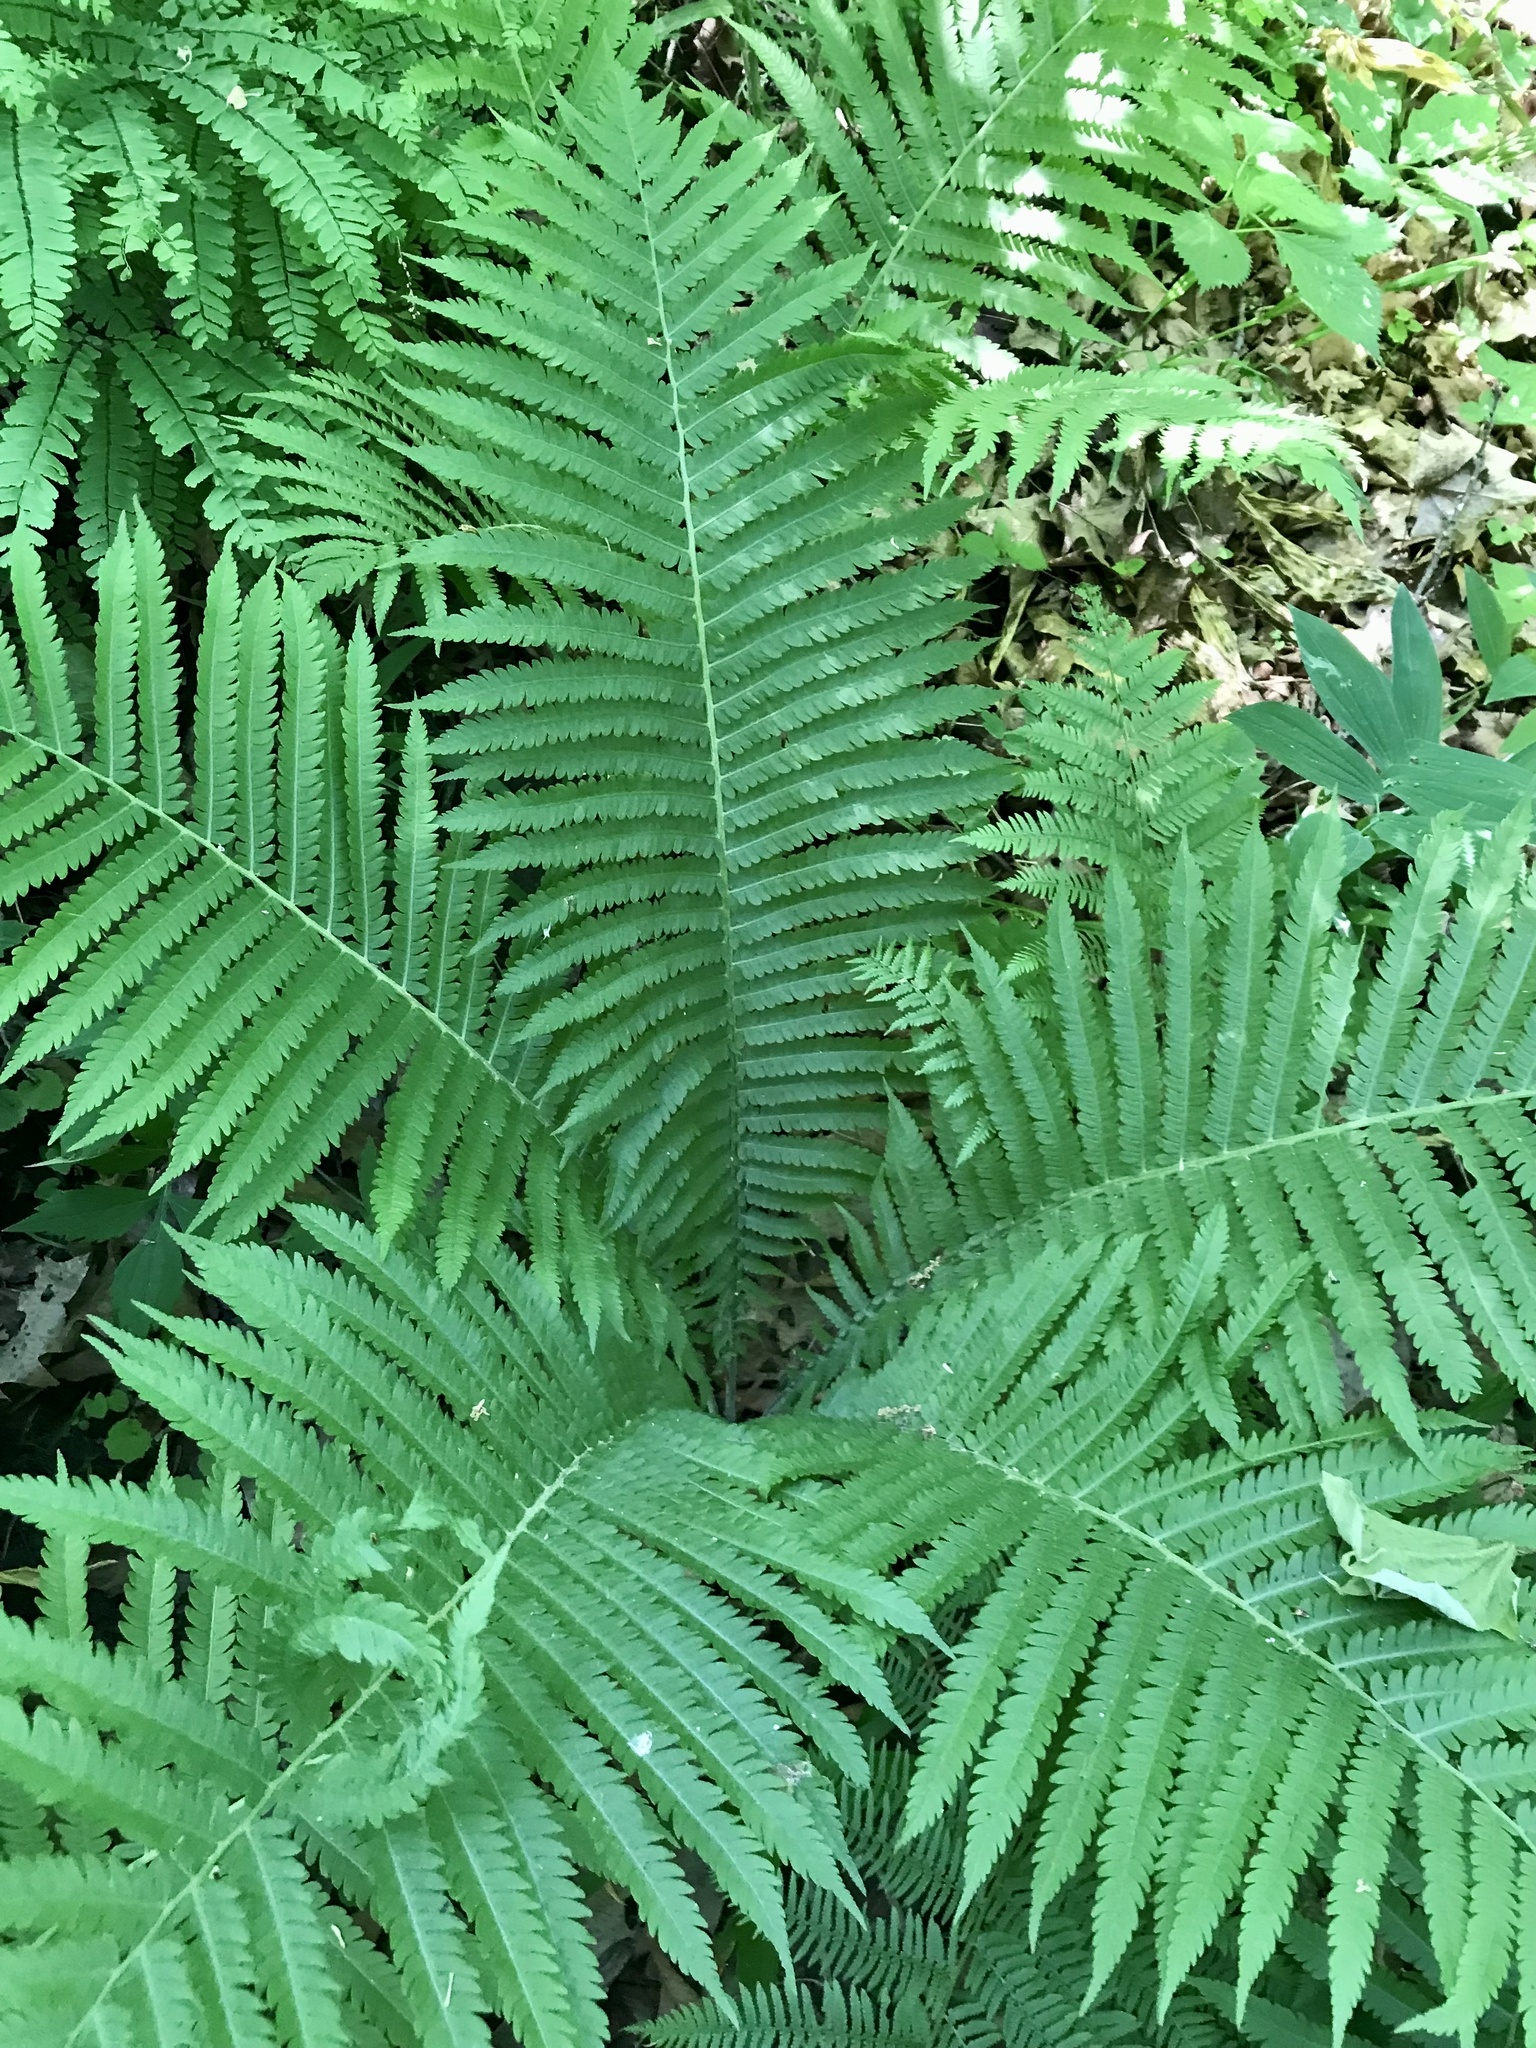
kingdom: Plantae
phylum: Tracheophyta
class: Polypodiopsida
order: Polypodiales
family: Onocleaceae
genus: Matteuccia
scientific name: Matteuccia struthiopteris
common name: Ostrich fern
